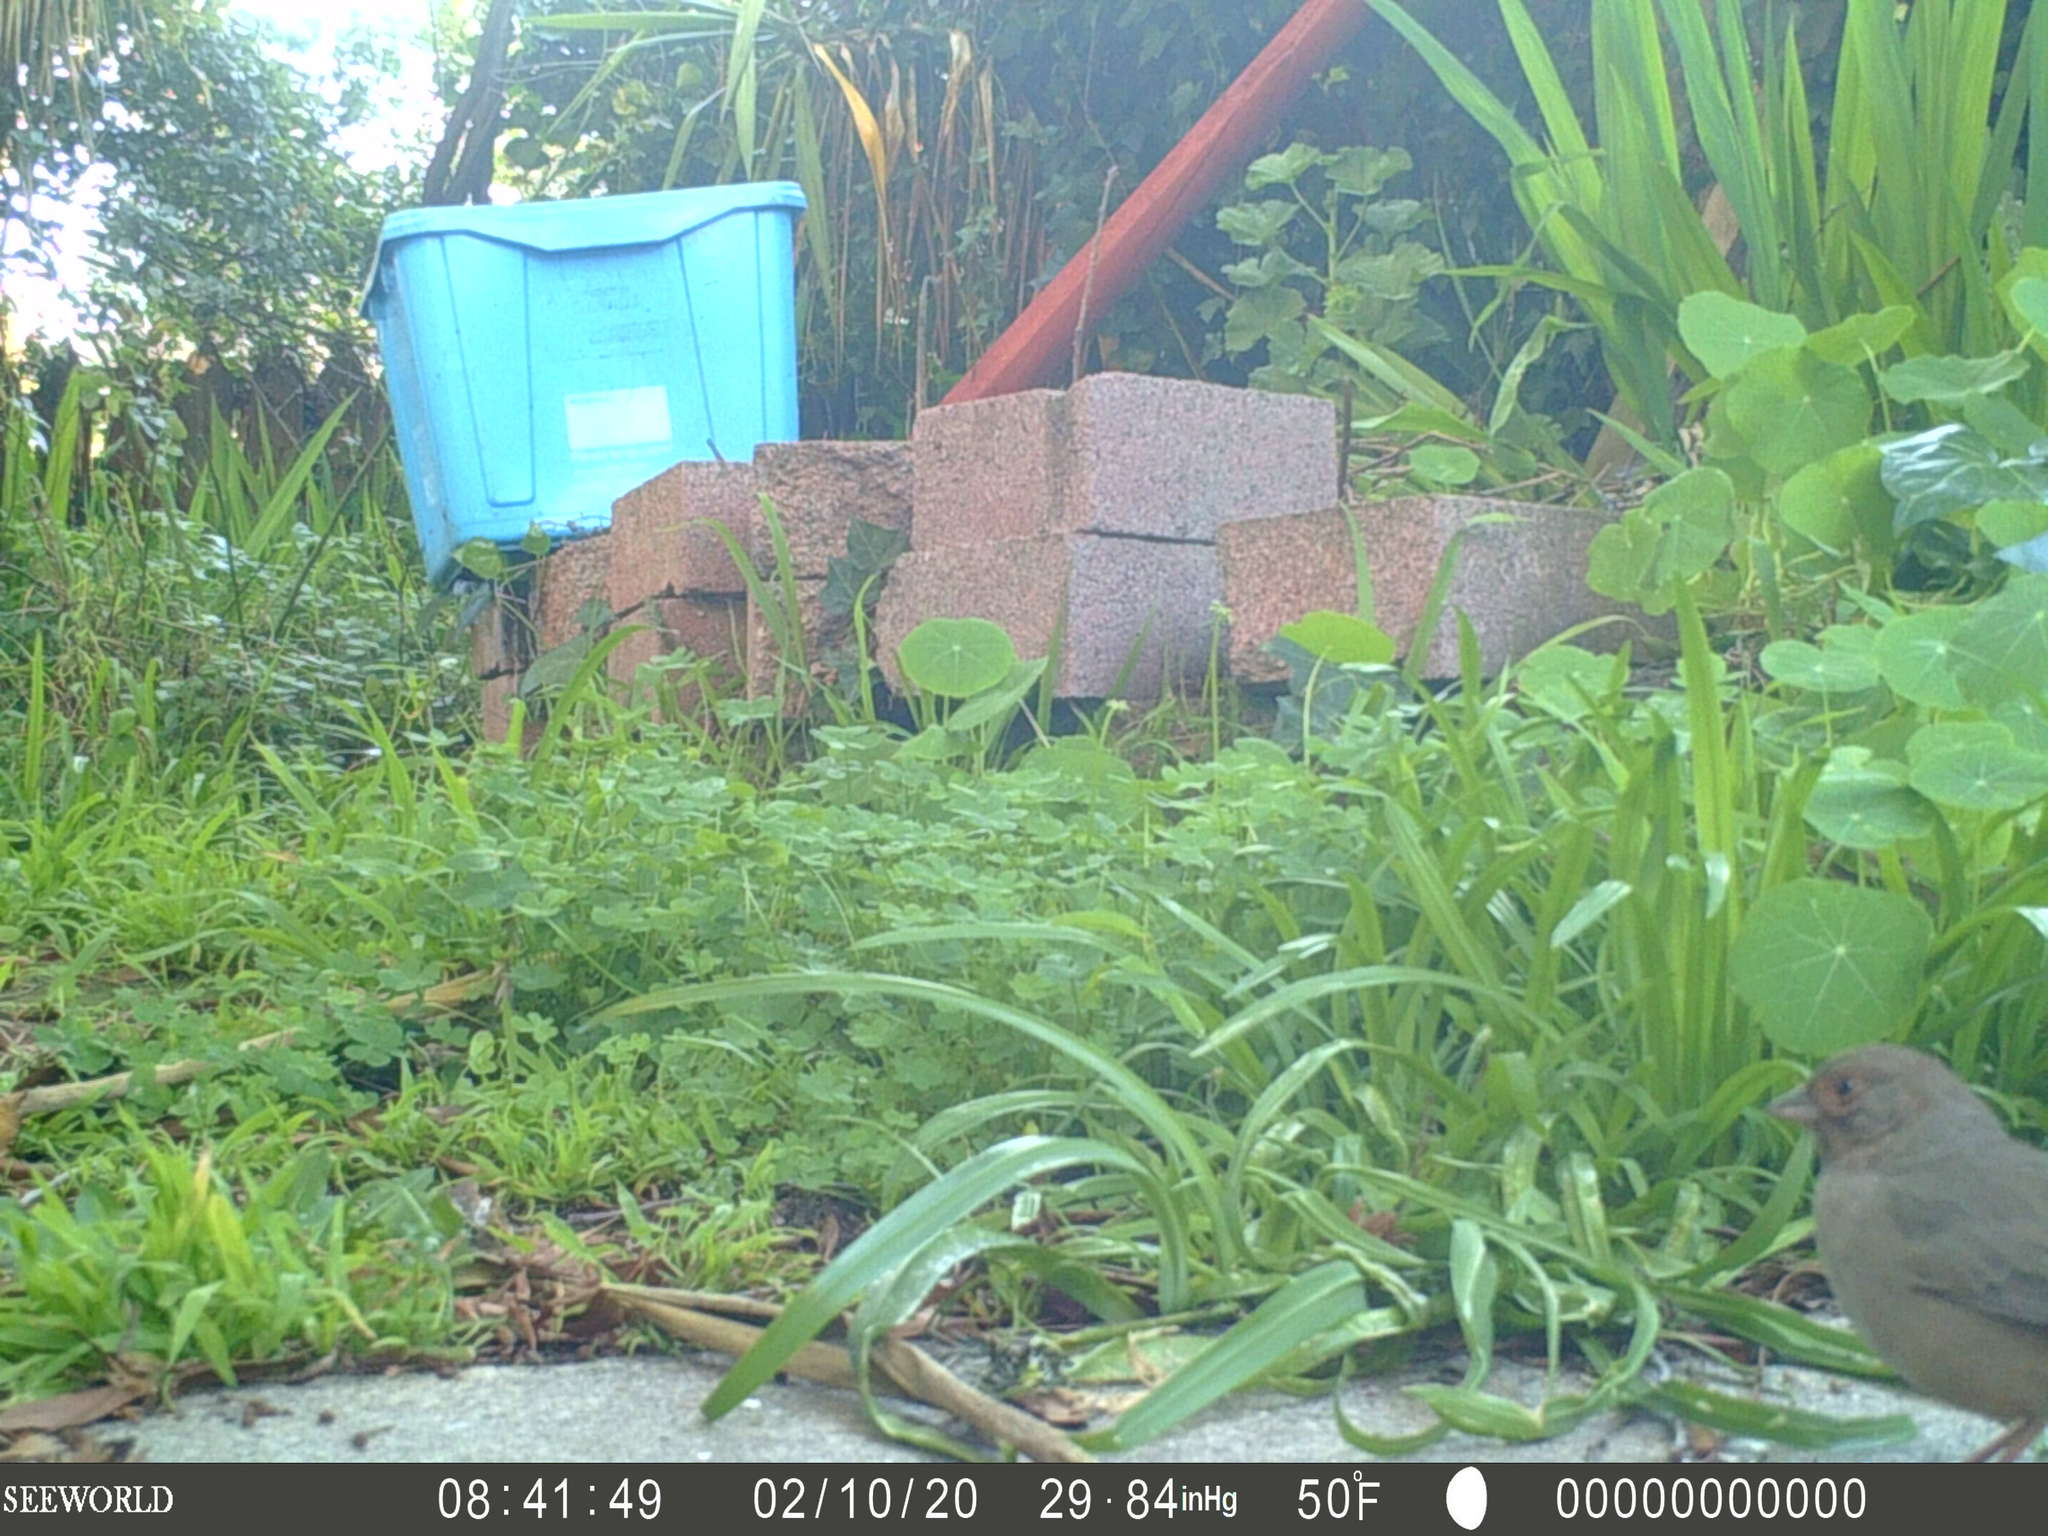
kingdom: Animalia
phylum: Chordata
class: Aves
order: Passeriformes
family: Passerellidae
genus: Melozone
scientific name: Melozone crissalis
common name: California towhee
